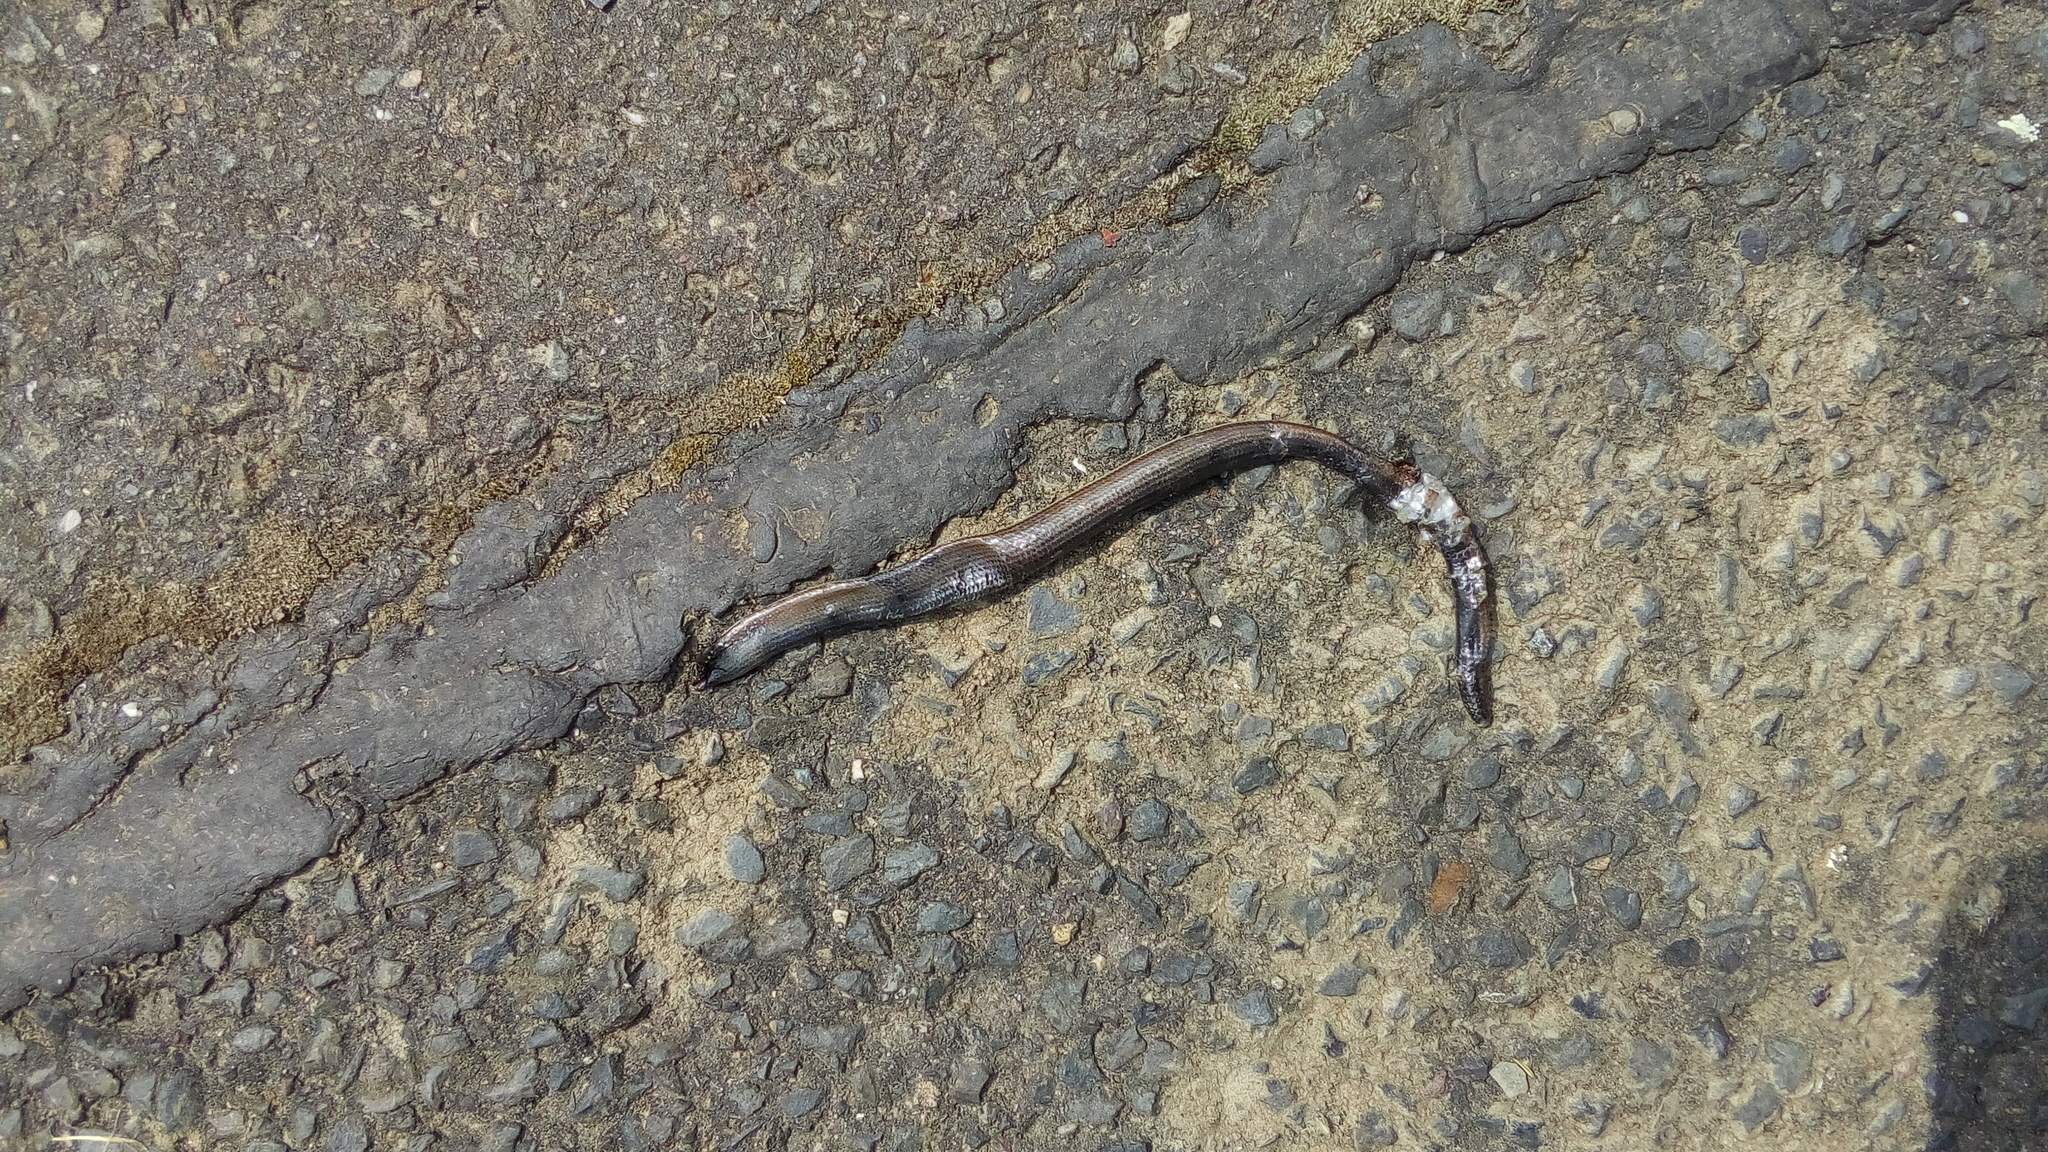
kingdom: Animalia
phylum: Chordata
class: Squamata
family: Anguidae
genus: Anguis
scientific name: Anguis fragilis
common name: Slow worm
